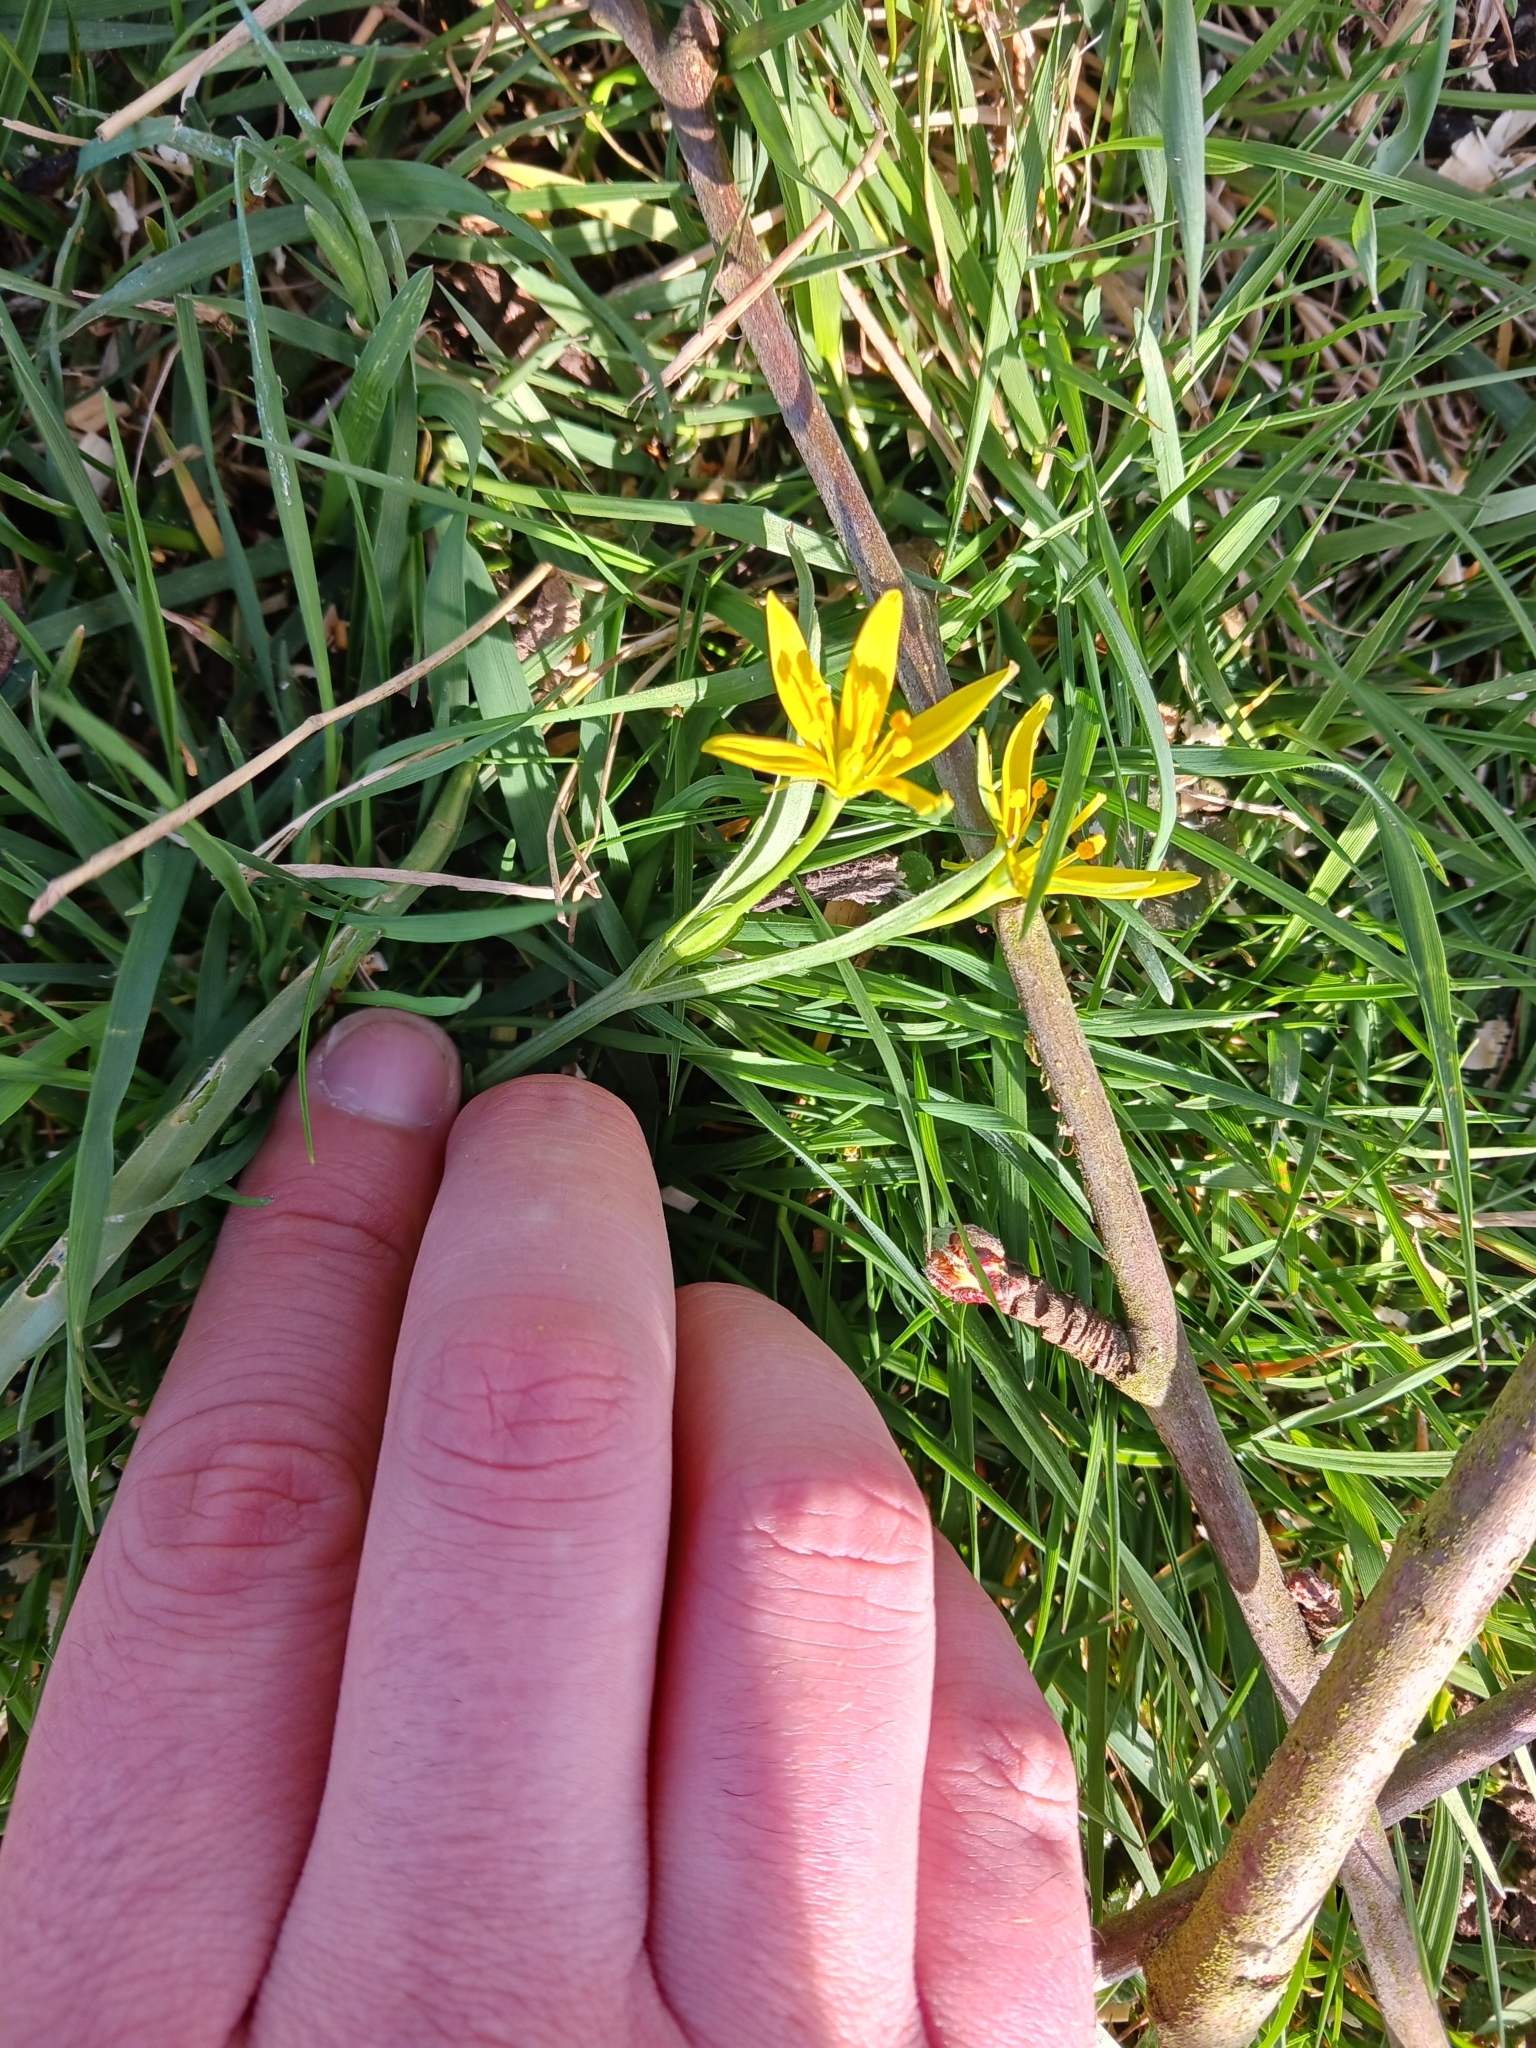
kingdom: Plantae
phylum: Tracheophyta
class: Liliopsida
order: Liliales
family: Liliaceae
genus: Gagea
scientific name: Gagea pratensis
